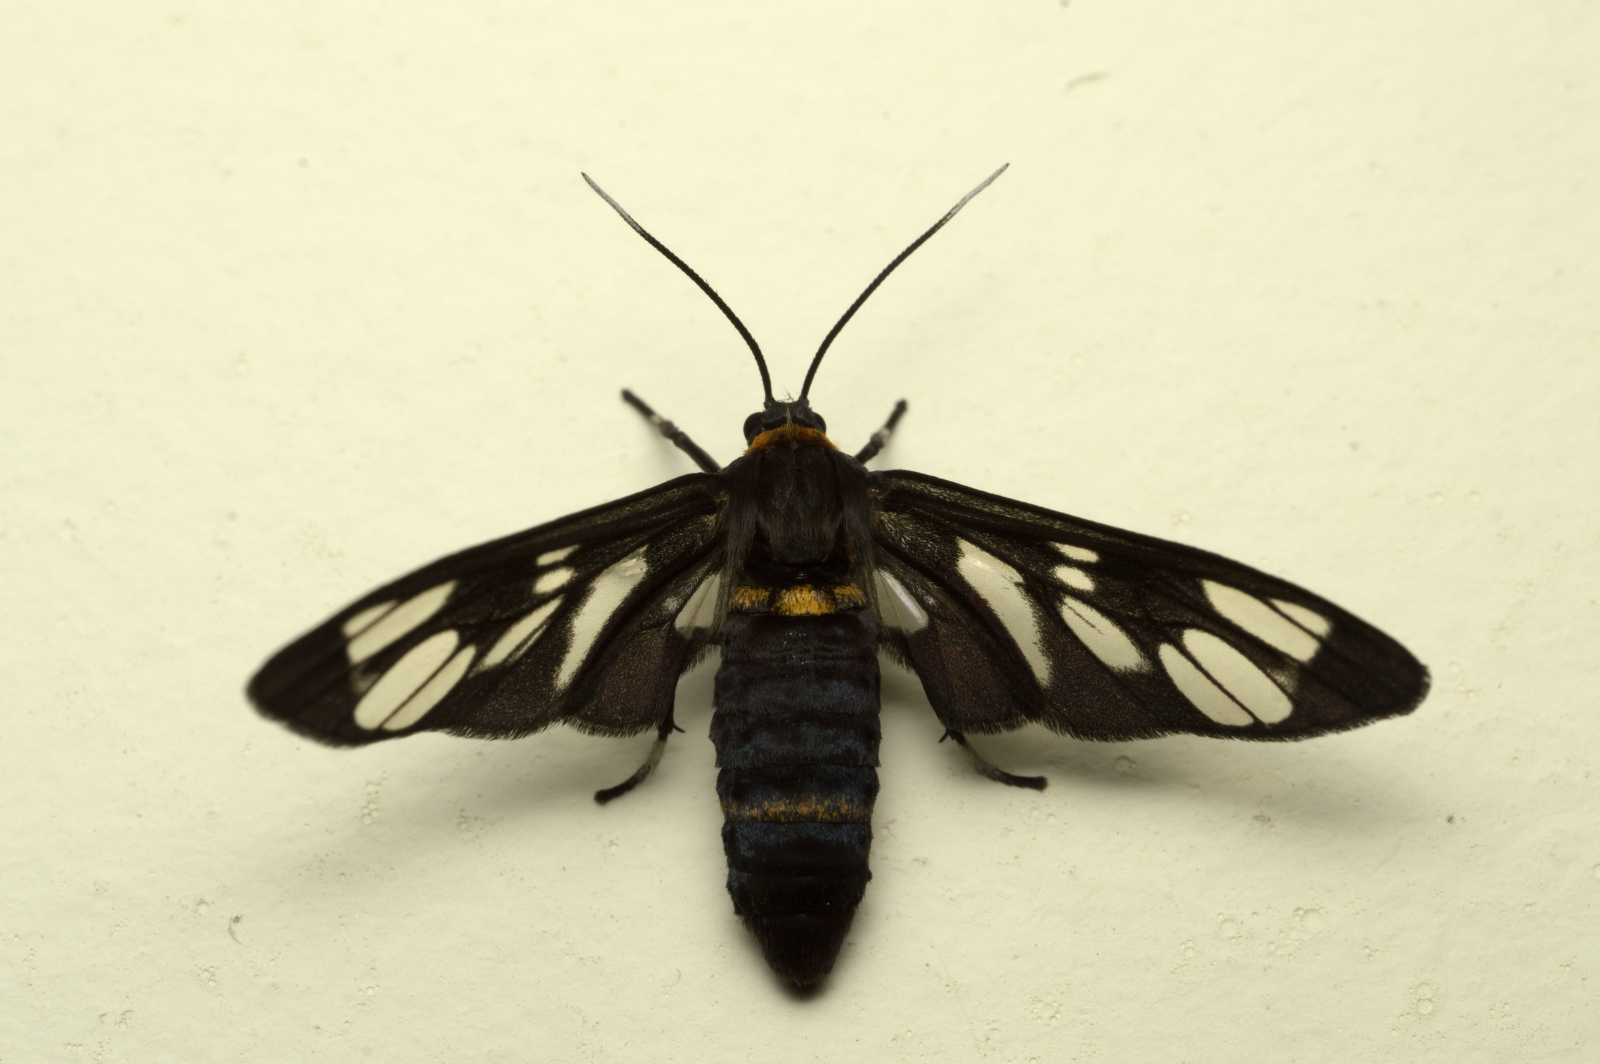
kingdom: Animalia
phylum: Arthropoda
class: Insecta
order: Lepidoptera
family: Erebidae
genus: Syntomoides
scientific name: Syntomoides imaon
